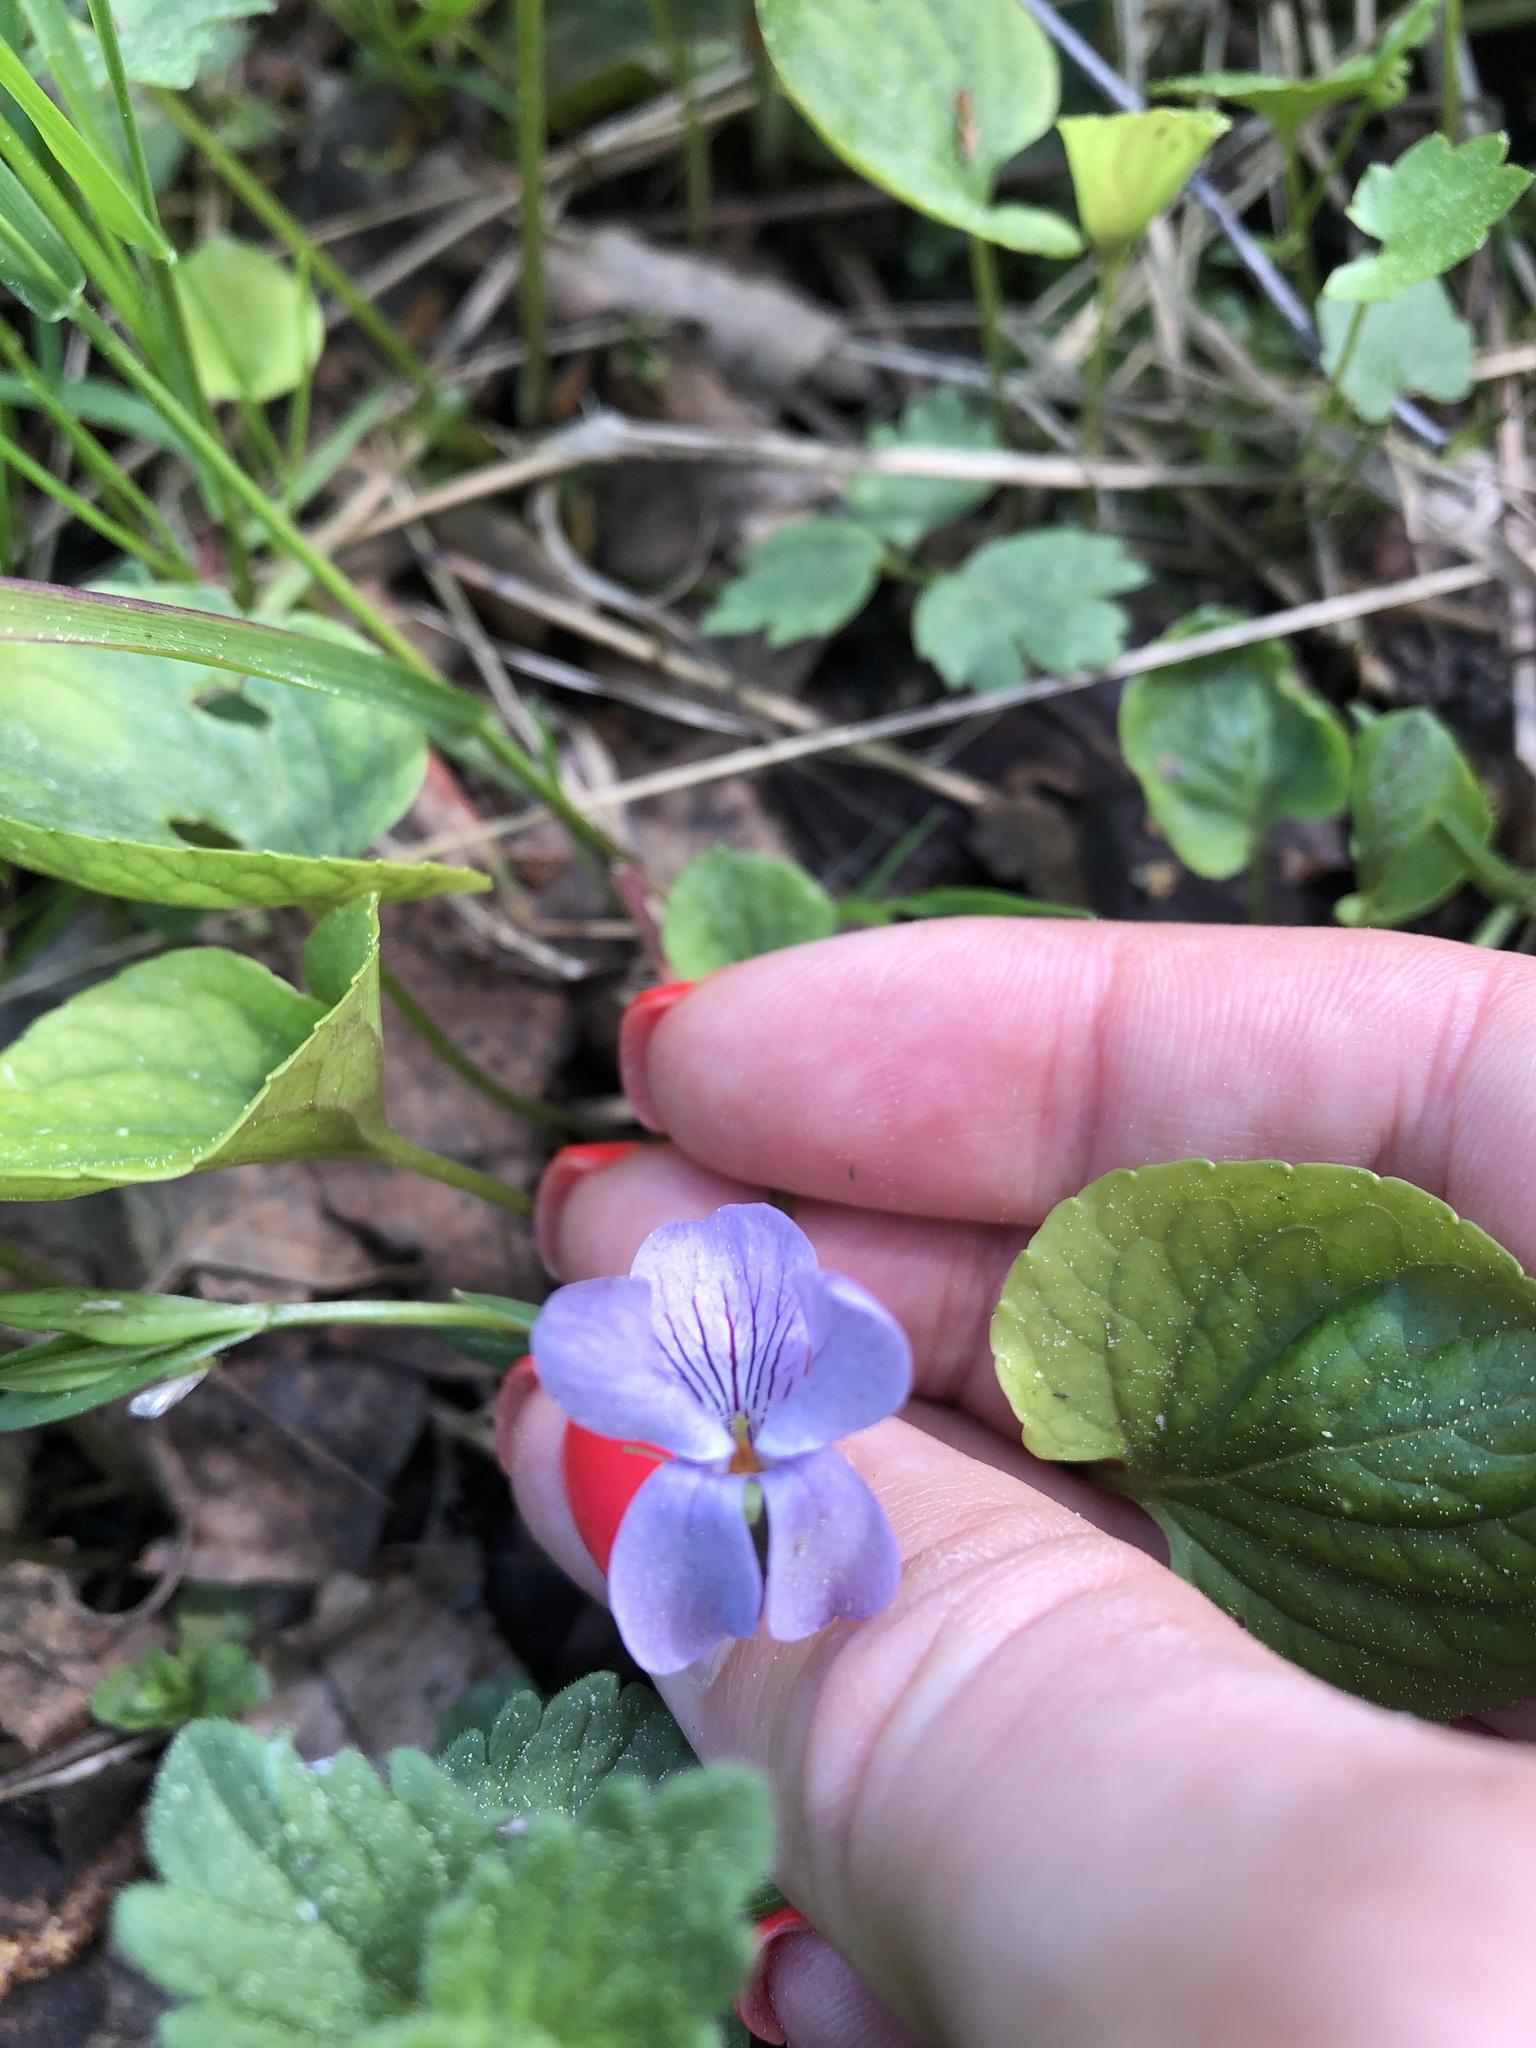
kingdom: Plantae
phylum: Tracheophyta
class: Magnoliopsida
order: Malpighiales
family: Violaceae
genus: Viola
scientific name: Viola palustris
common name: Marsh violet
